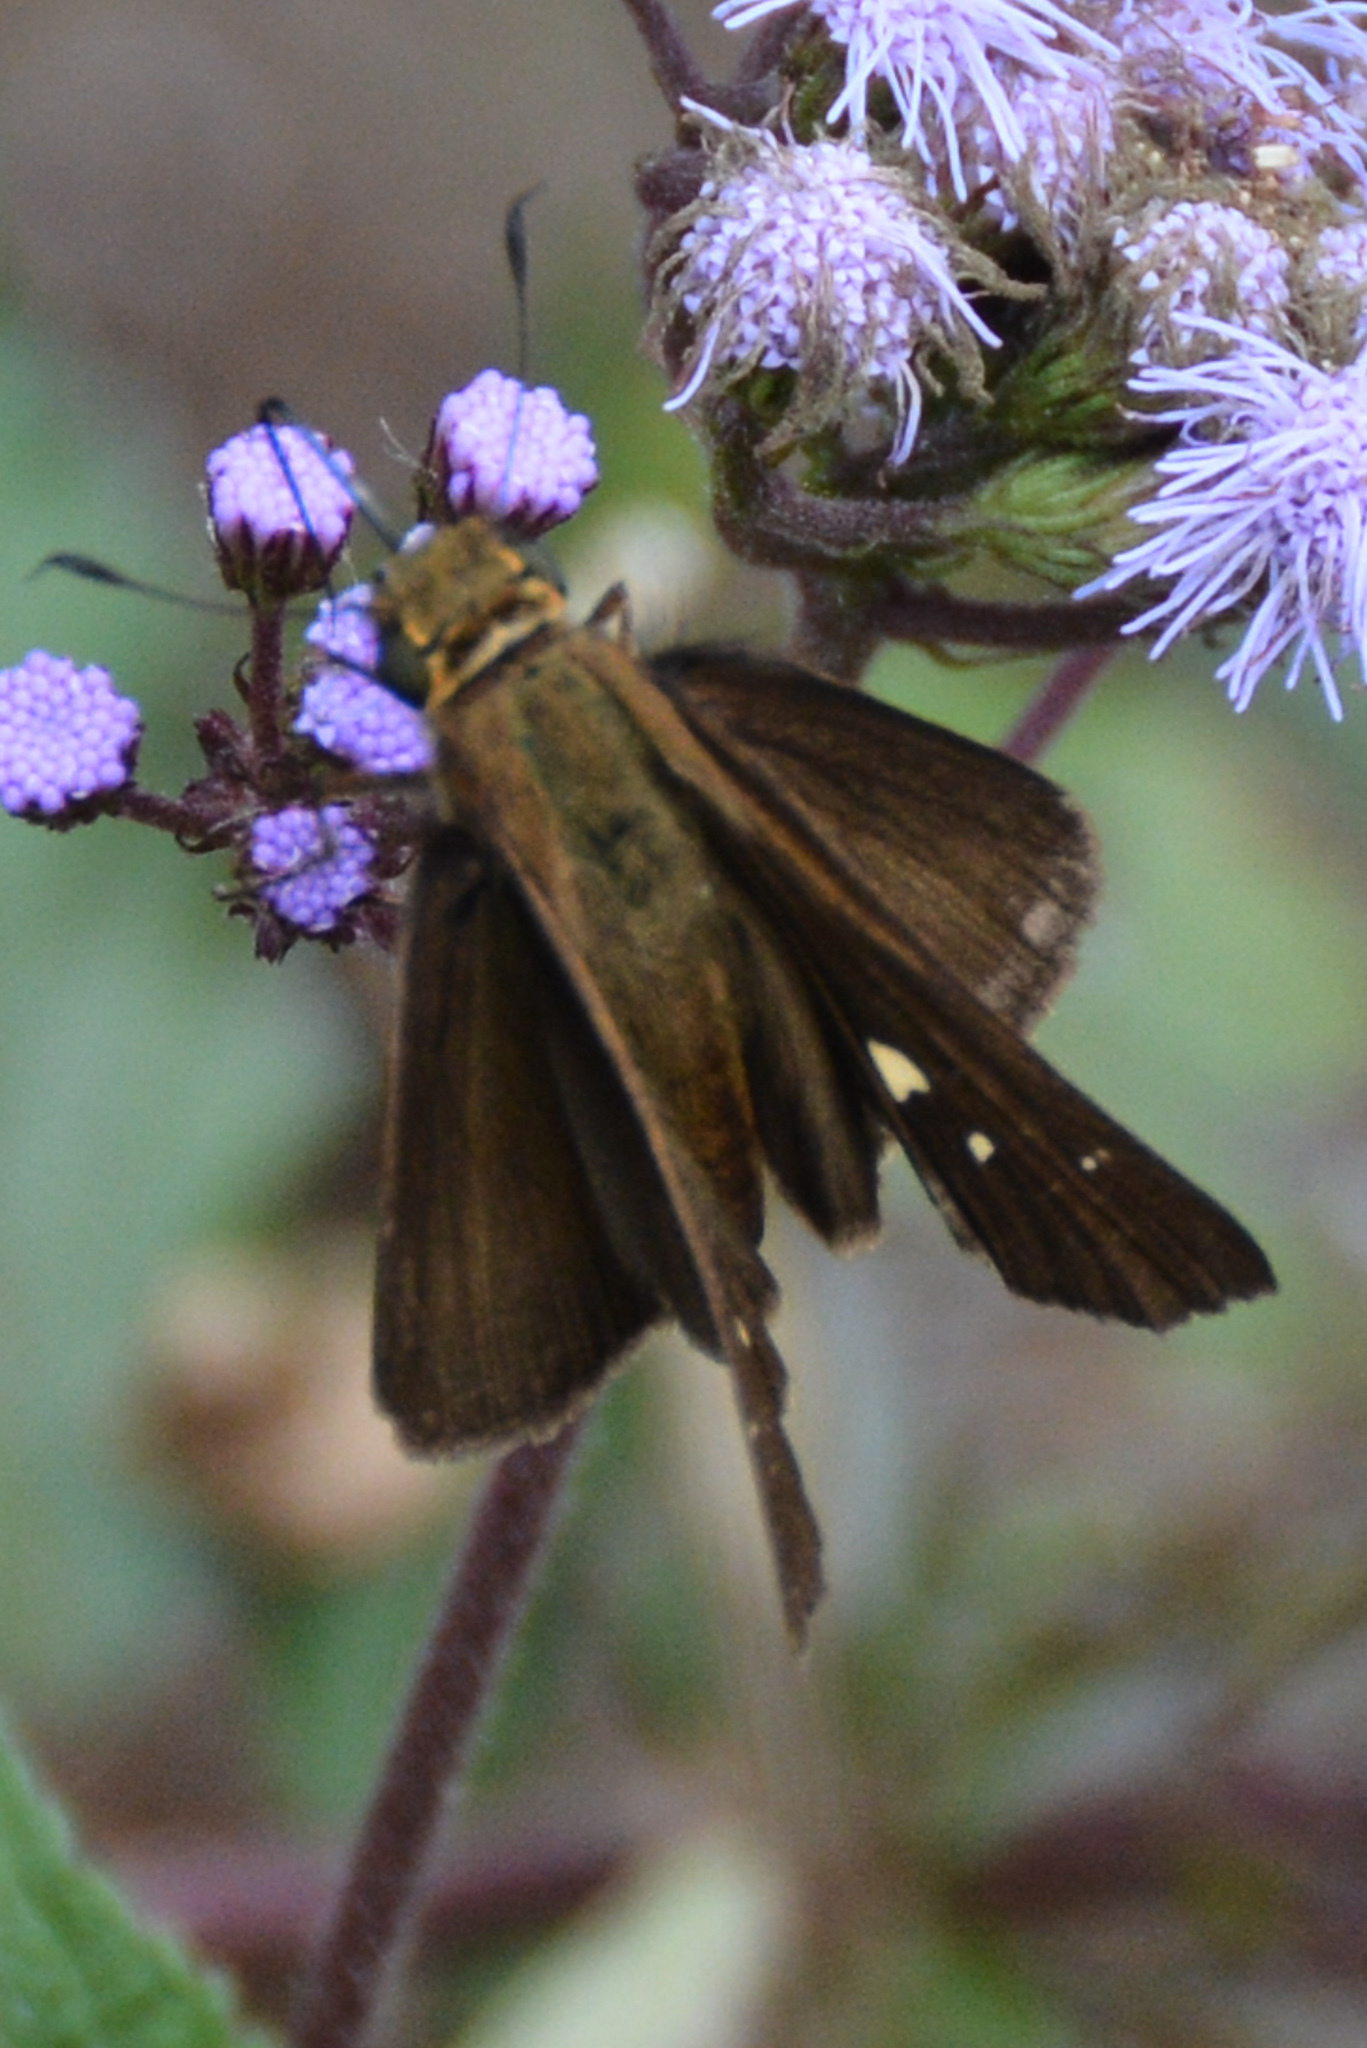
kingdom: Animalia
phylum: Arthropoda
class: Insecta
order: Lepidoptera
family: Hesperiidae
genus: Panoquina
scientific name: Panoquina ocola
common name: Ocola skipper
